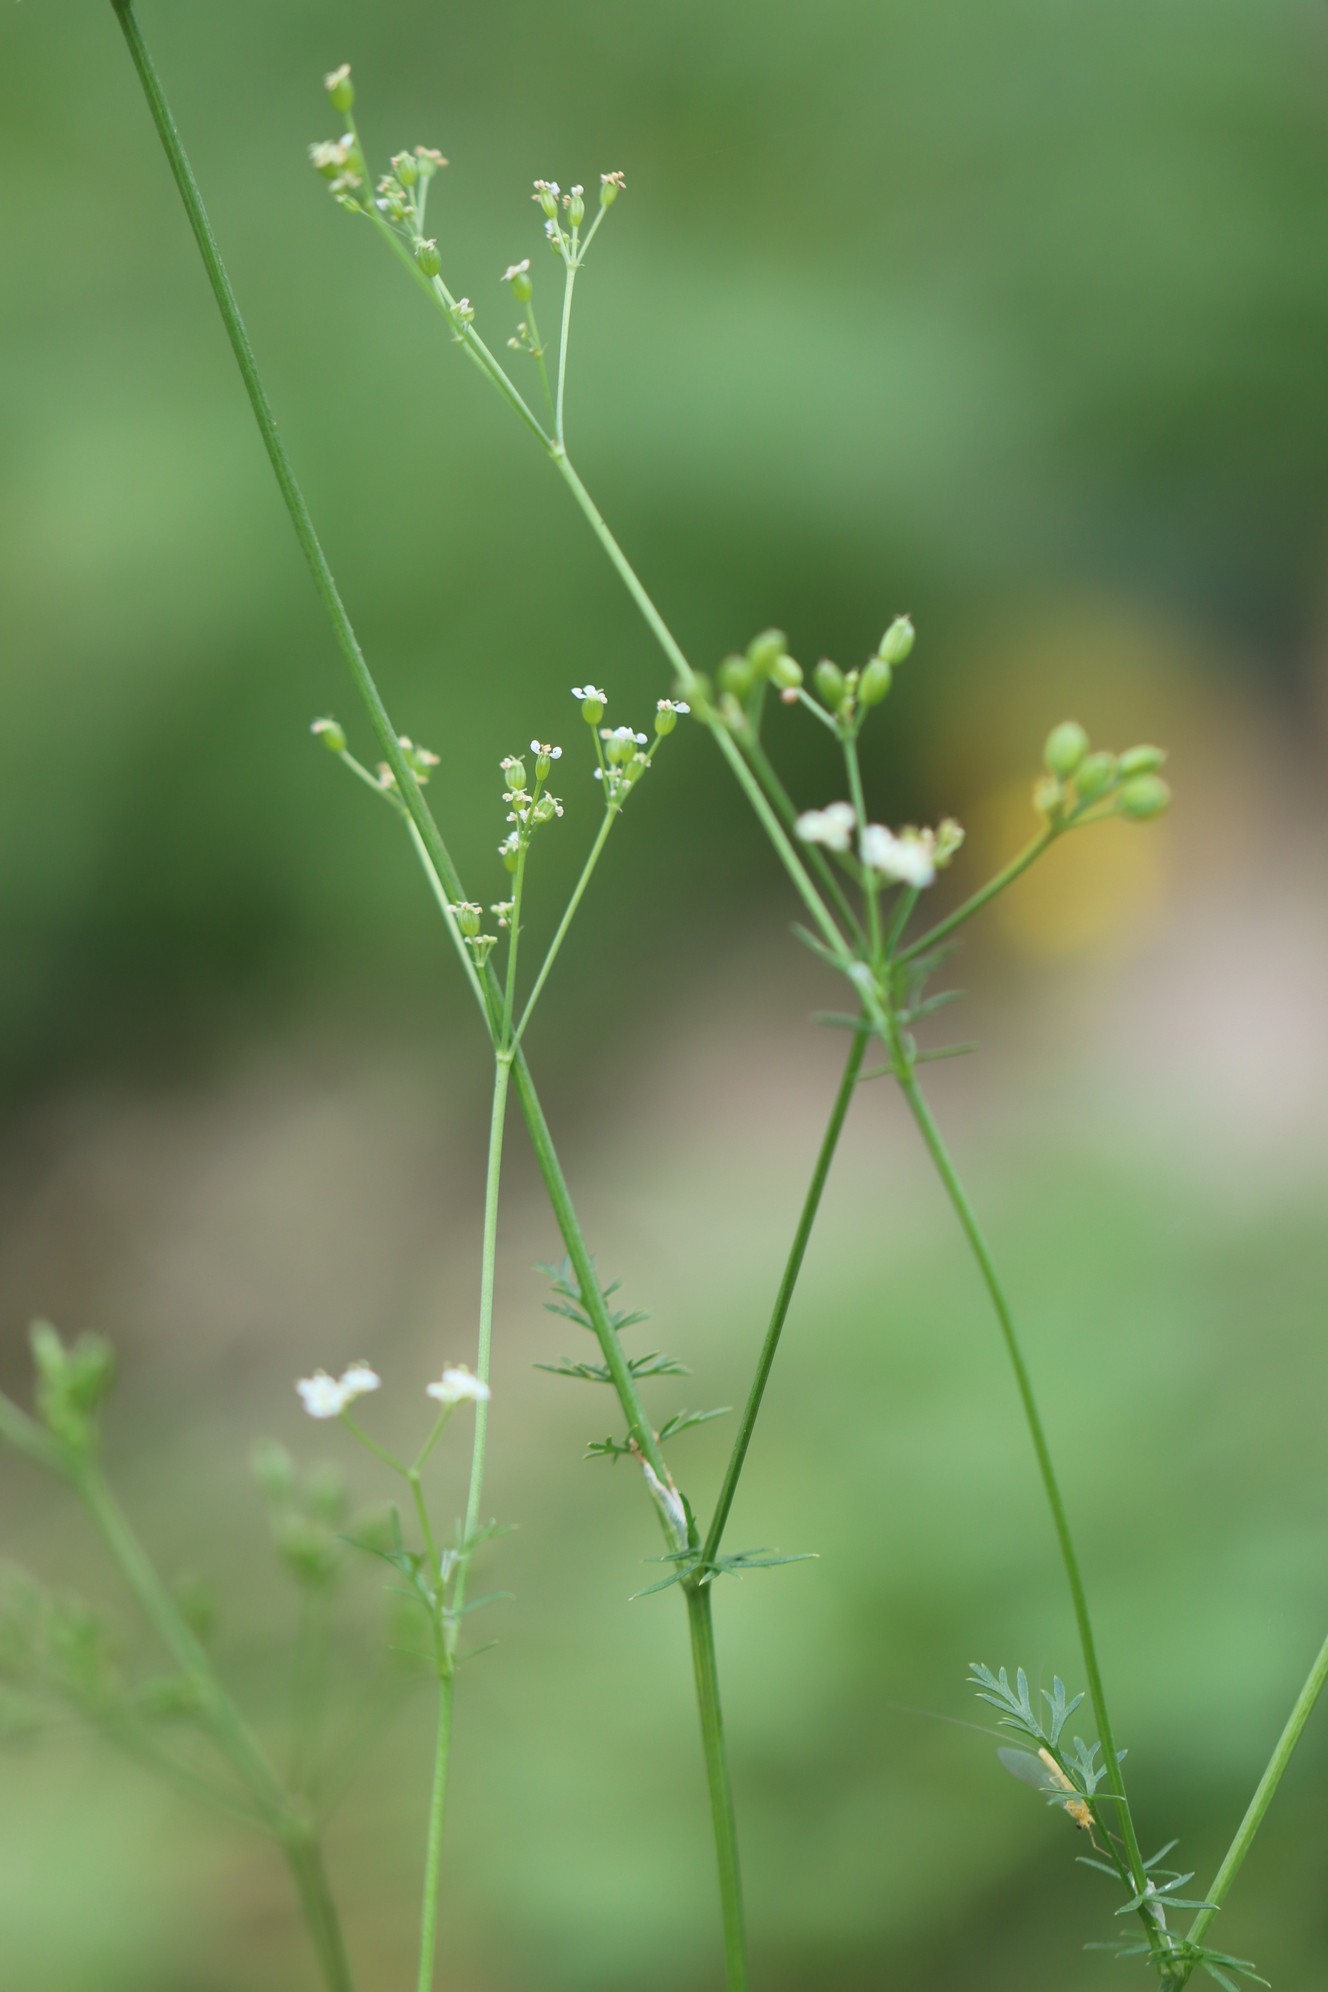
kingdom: Plantae
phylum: Tracheophyta
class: Magnoliopsida
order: Apiales
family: Apiaceae
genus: Carum
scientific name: Carum carvi
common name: Caraway
